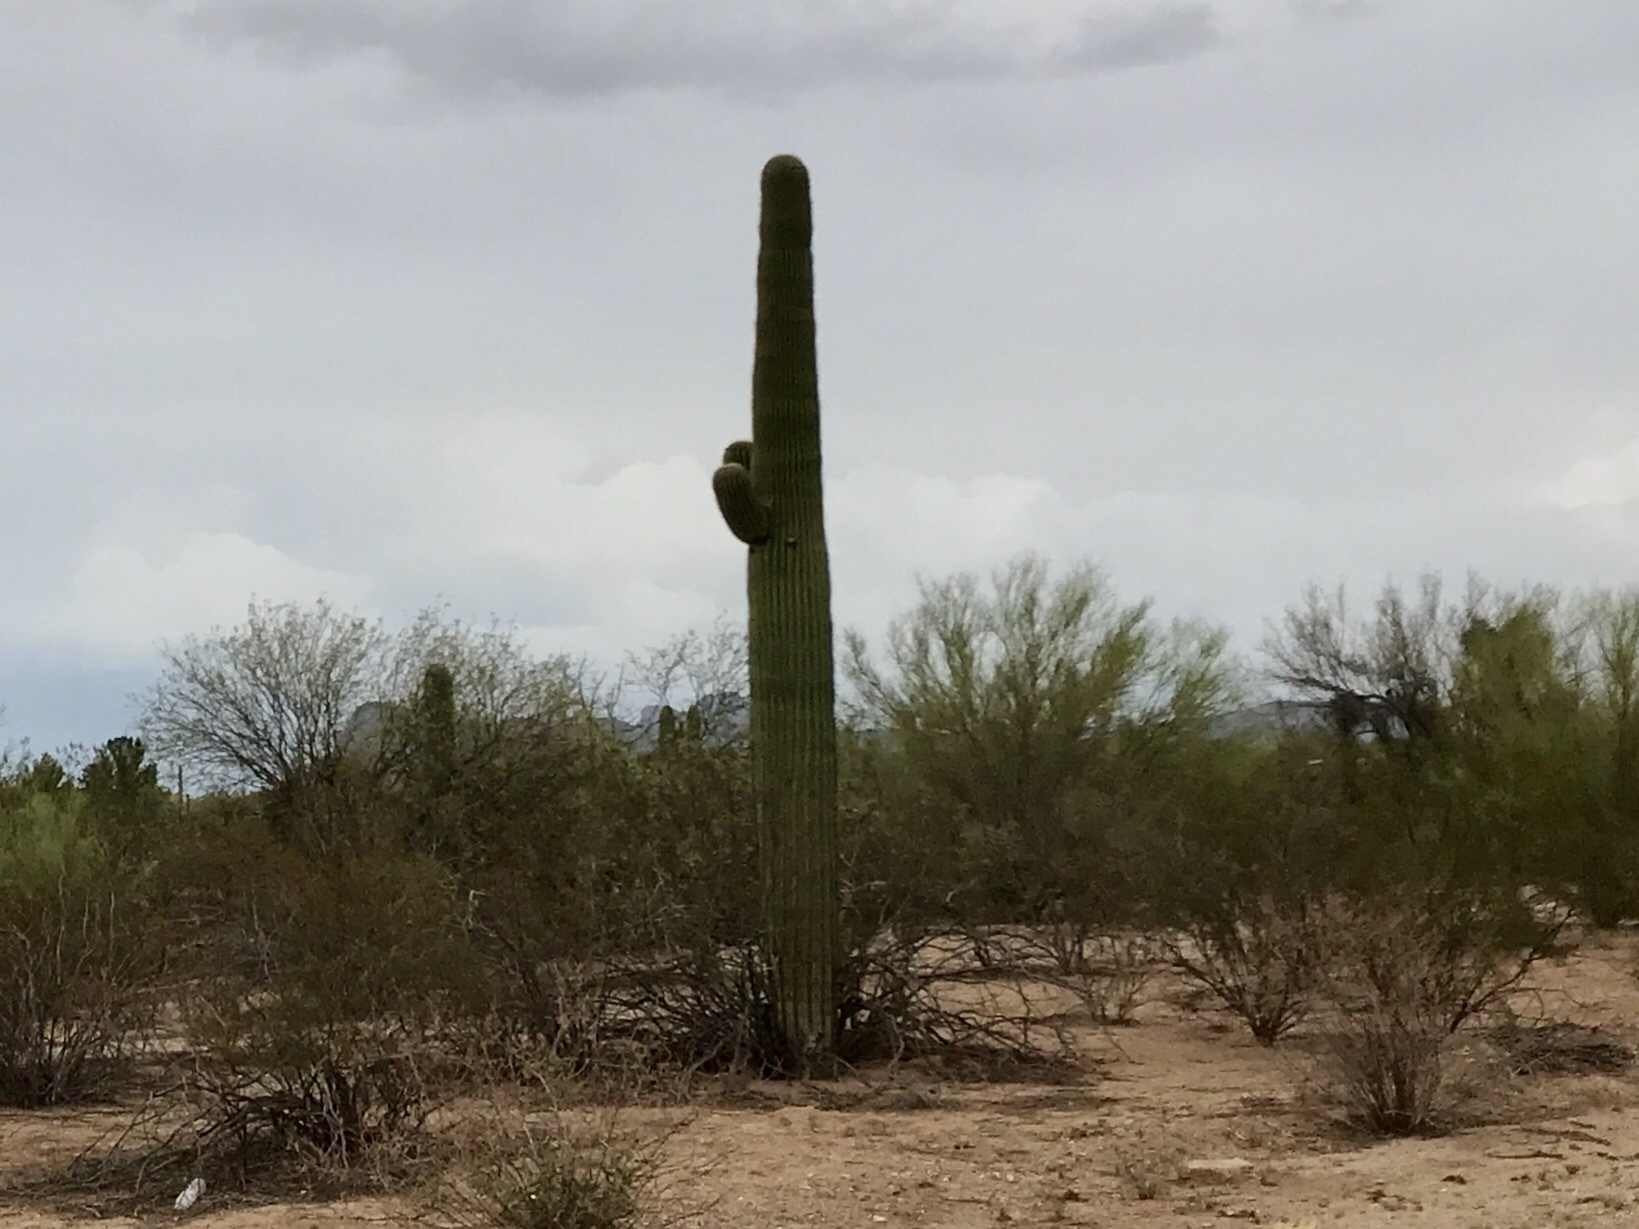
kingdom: Plantae
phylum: Tracheophyta
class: Magnoliopsida
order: Caryophyllales
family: Cactaceae
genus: Carnegiea
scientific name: Carnegiea gigantea
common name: Saguaro
